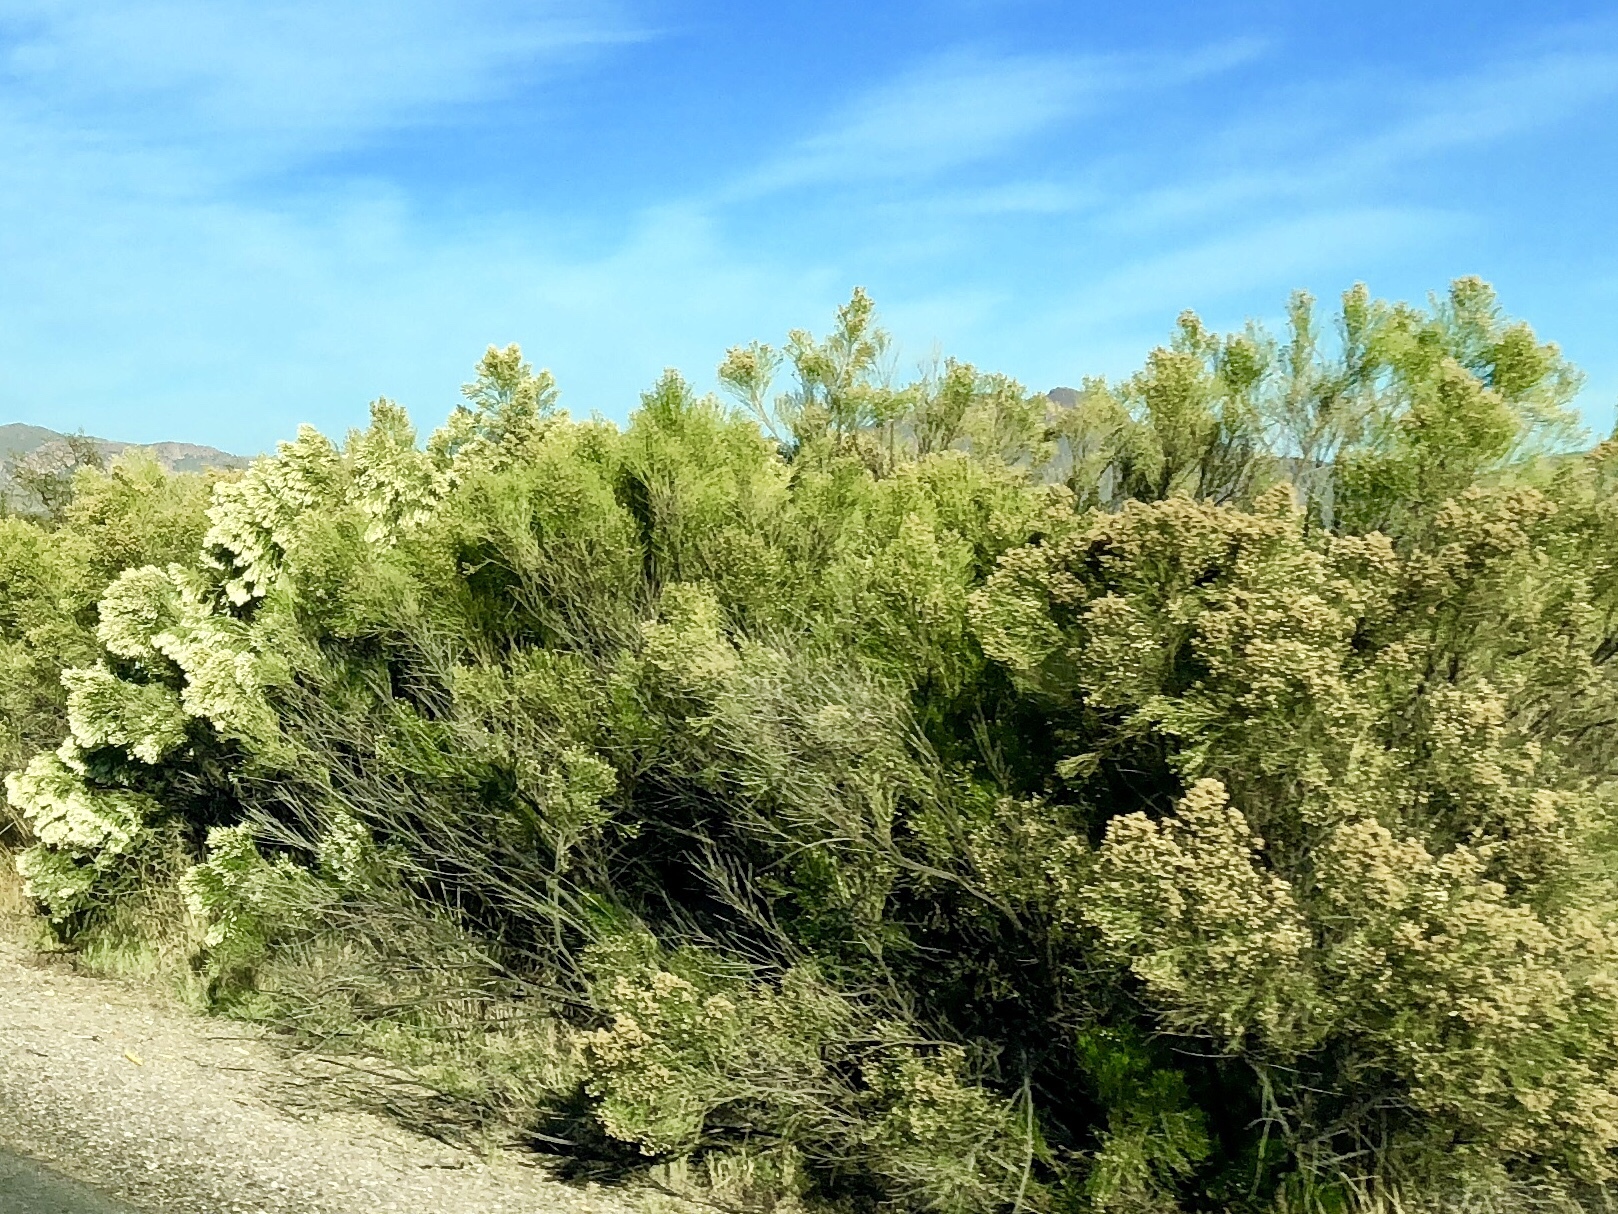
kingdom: Plantae
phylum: Tracheophyta
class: Magnoliopsida
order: Asterales
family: Asteraceae
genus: Baccharis
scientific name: Baccharis sarothroides
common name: Desert-broom
